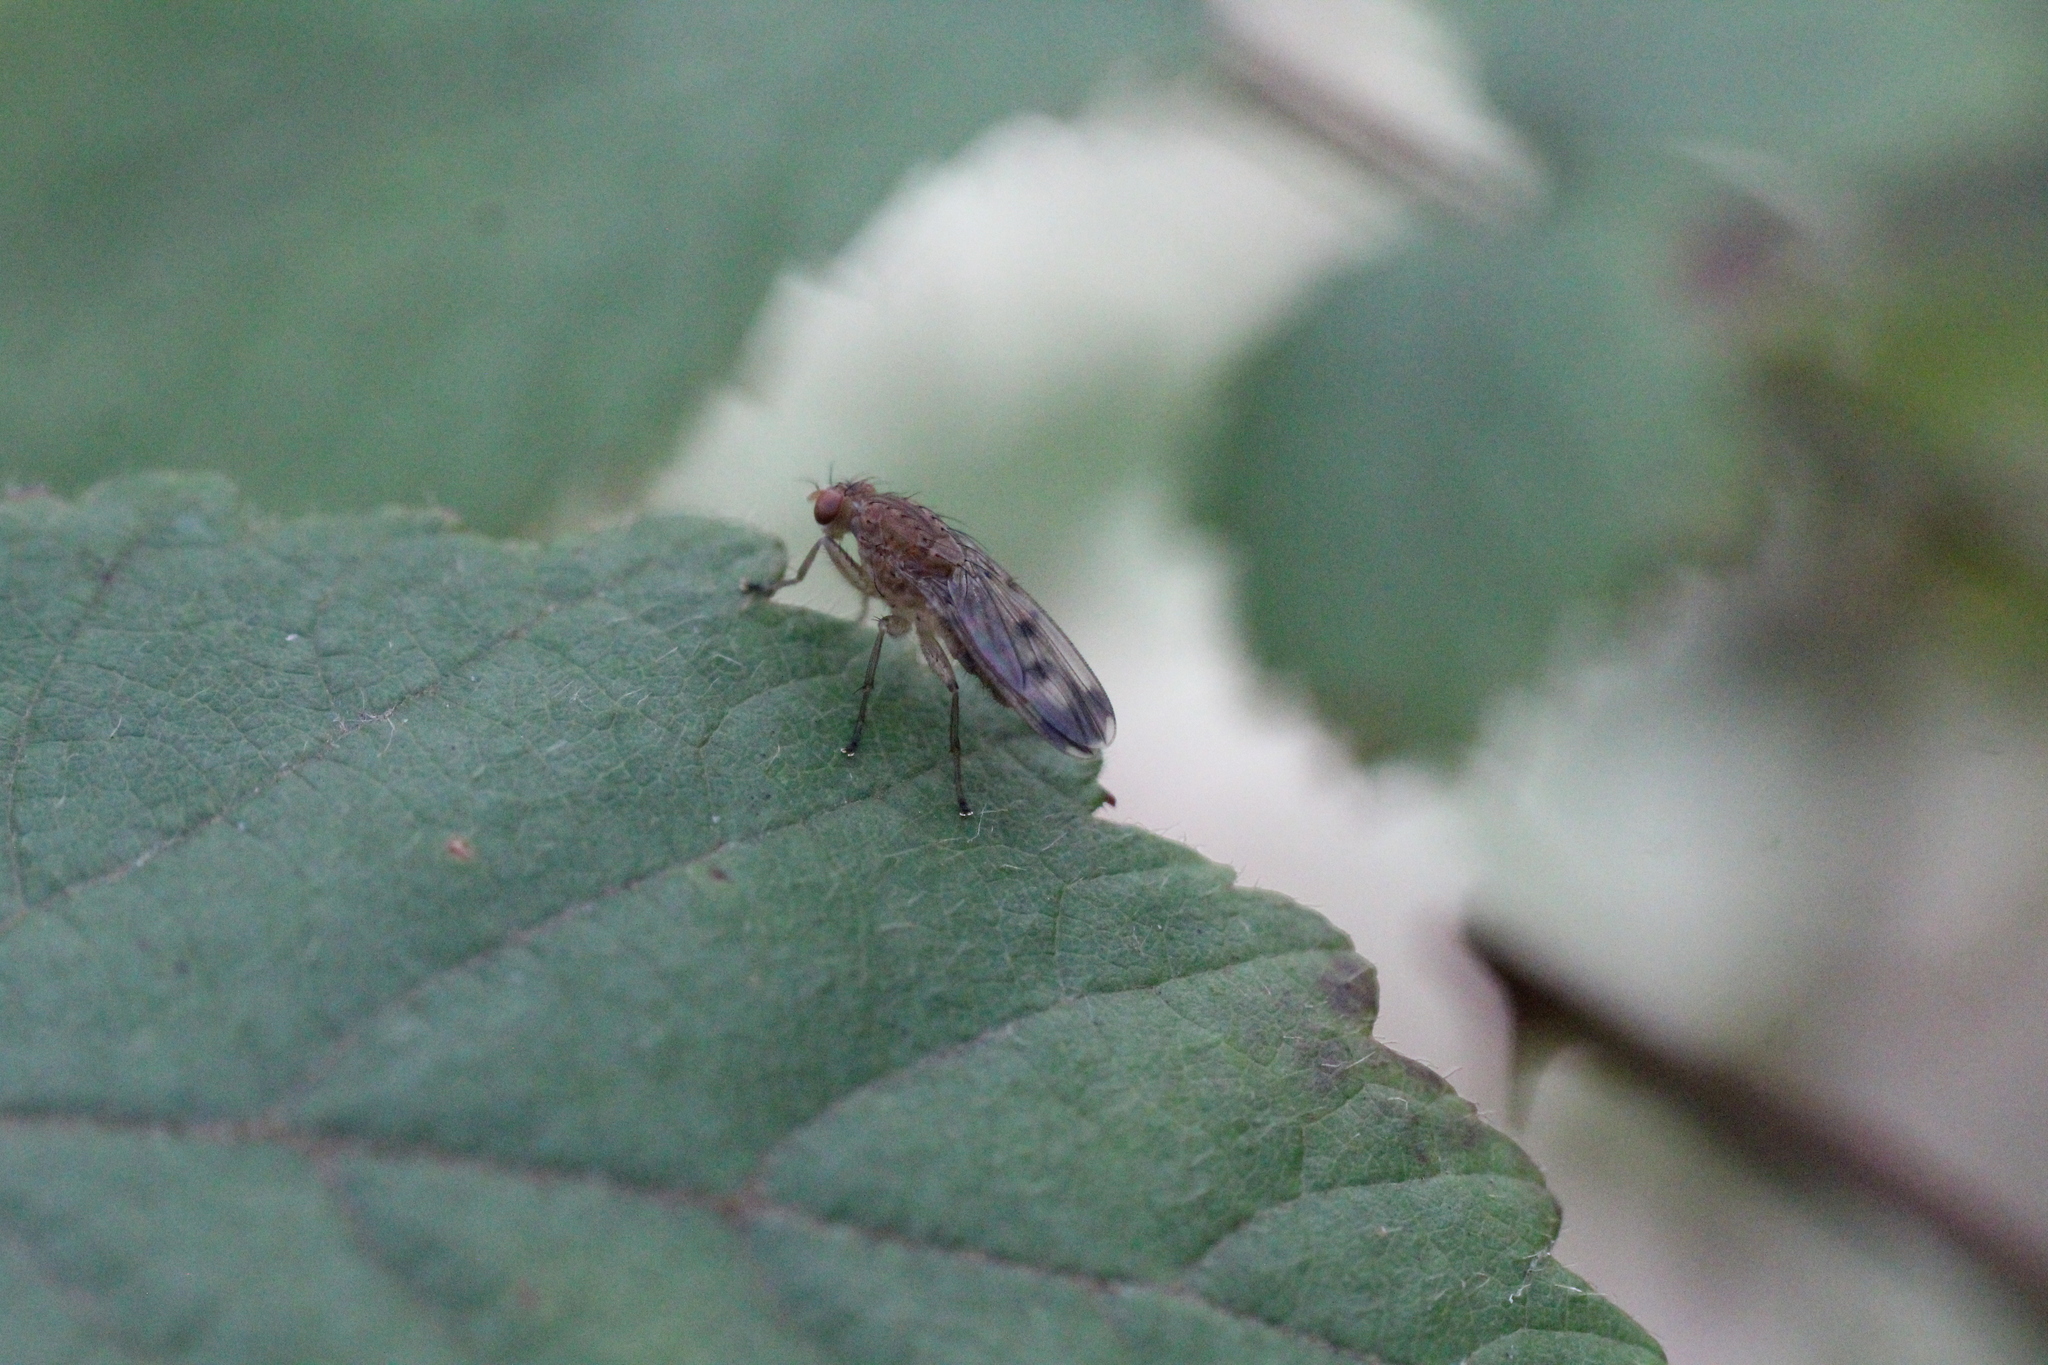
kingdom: Animalia
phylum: Arthropoda
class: Insecta
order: Diptera
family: Heleomyzidae
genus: Suillia
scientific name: Suillia variegata
